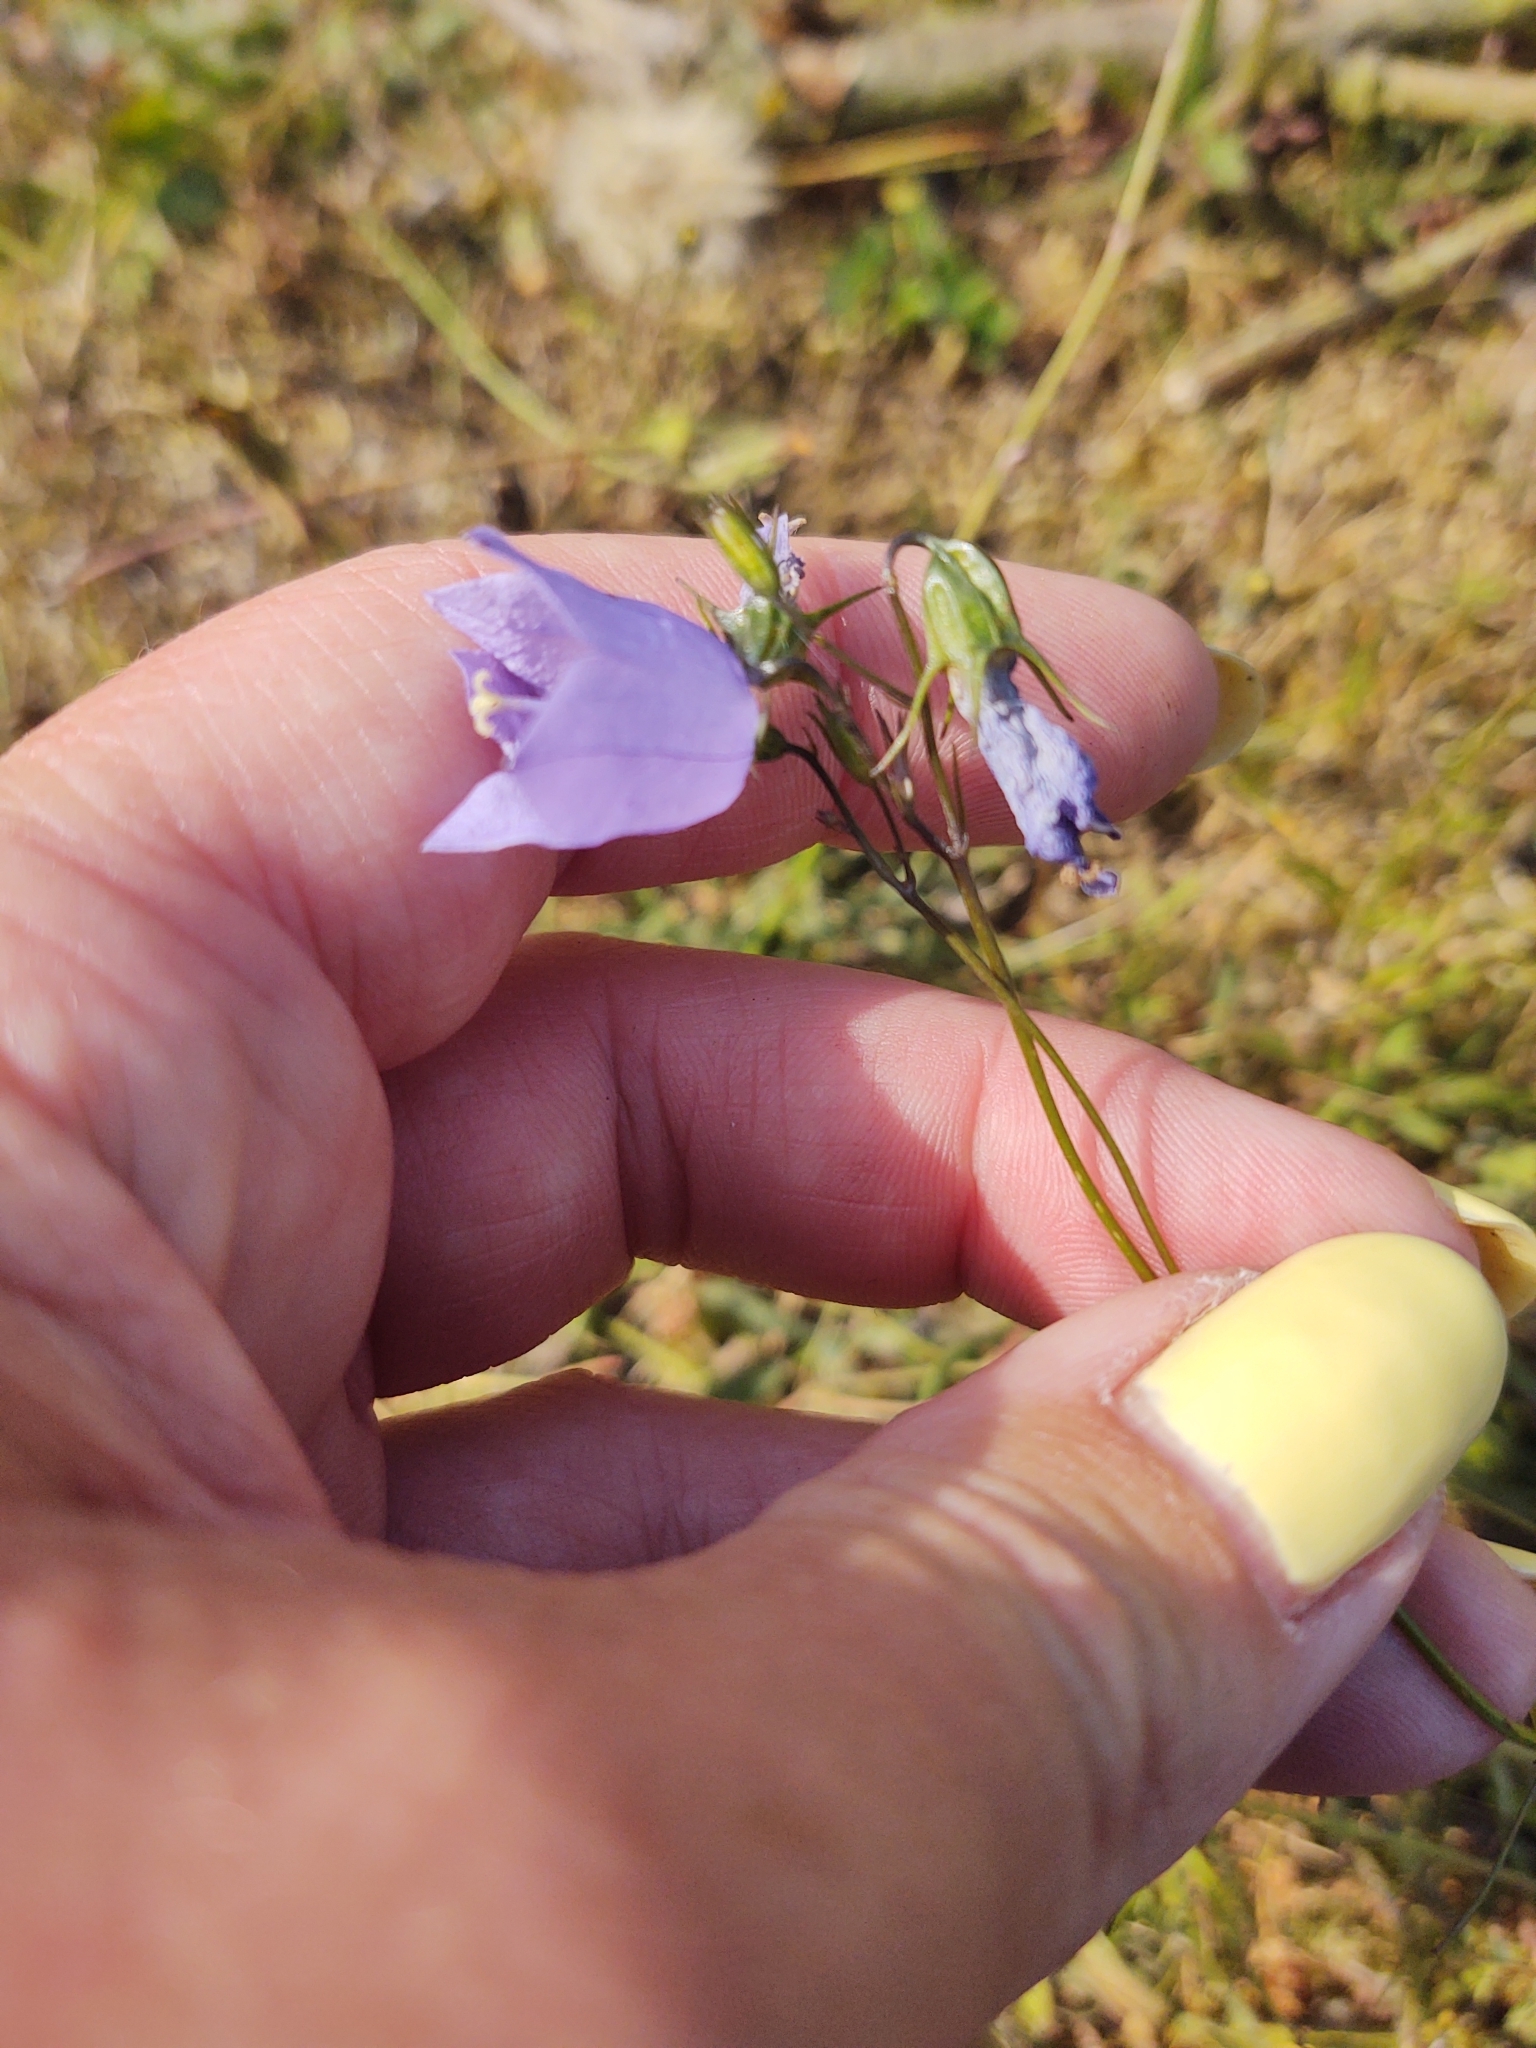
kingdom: Plantae
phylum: Tracheophyta
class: Magnoliopsida
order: Asterales
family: Campanulaceae
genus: Campanula
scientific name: Campanula rotundifolia
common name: Harebell
